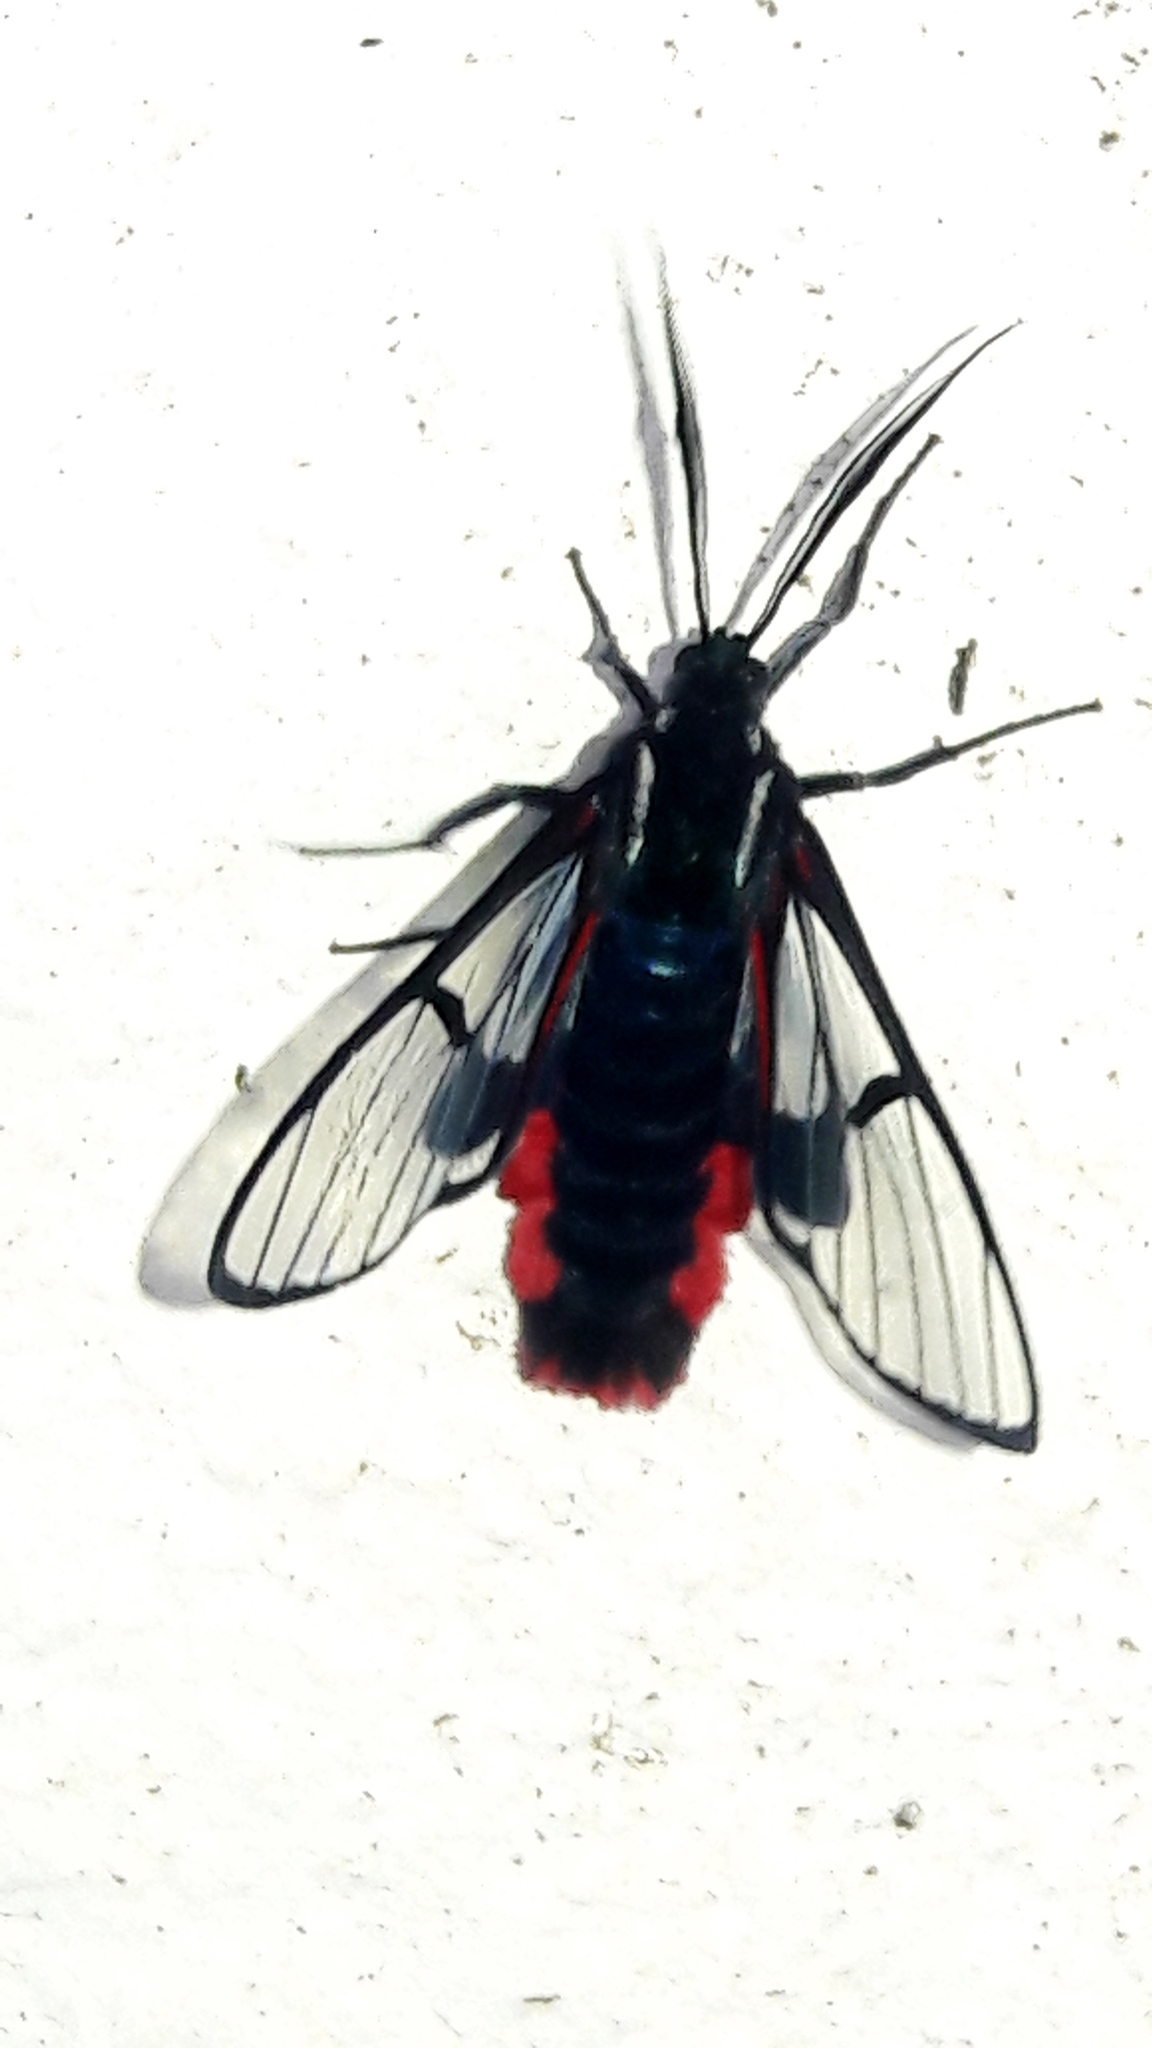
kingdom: Animalia
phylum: Arthropoda
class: Insecta
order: Lepidoptera
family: Erebidae
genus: Dinia
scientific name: Dinia mena
